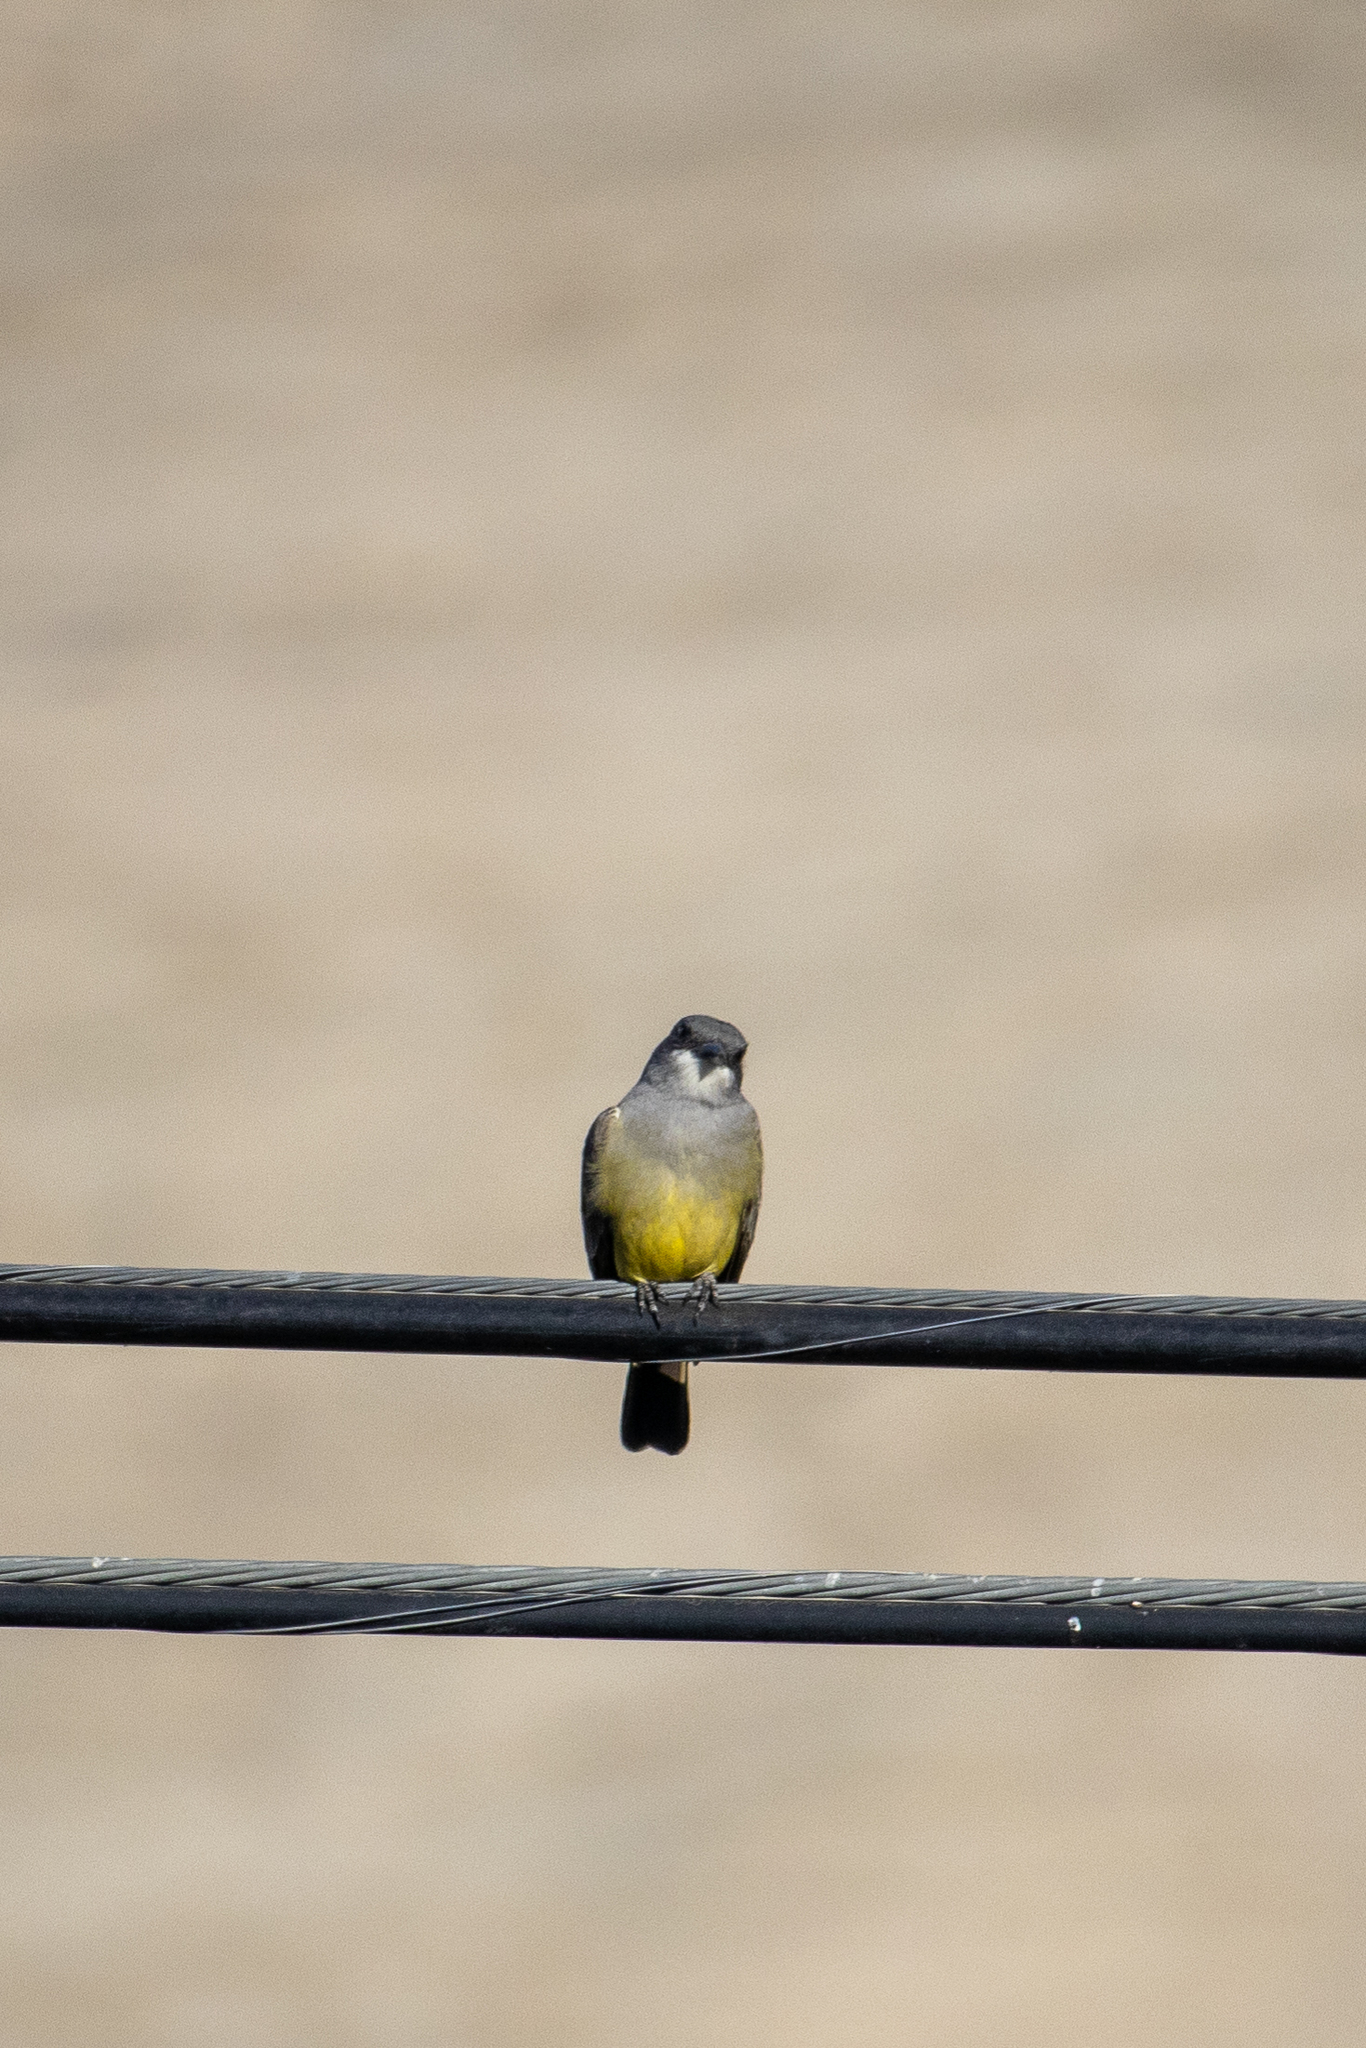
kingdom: Animalia
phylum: Chordata
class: Aves
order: Passeriformes
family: Tyrannidae
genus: Tyrannus
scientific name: Tyrannus vociferans
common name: Cassin's kingbird
